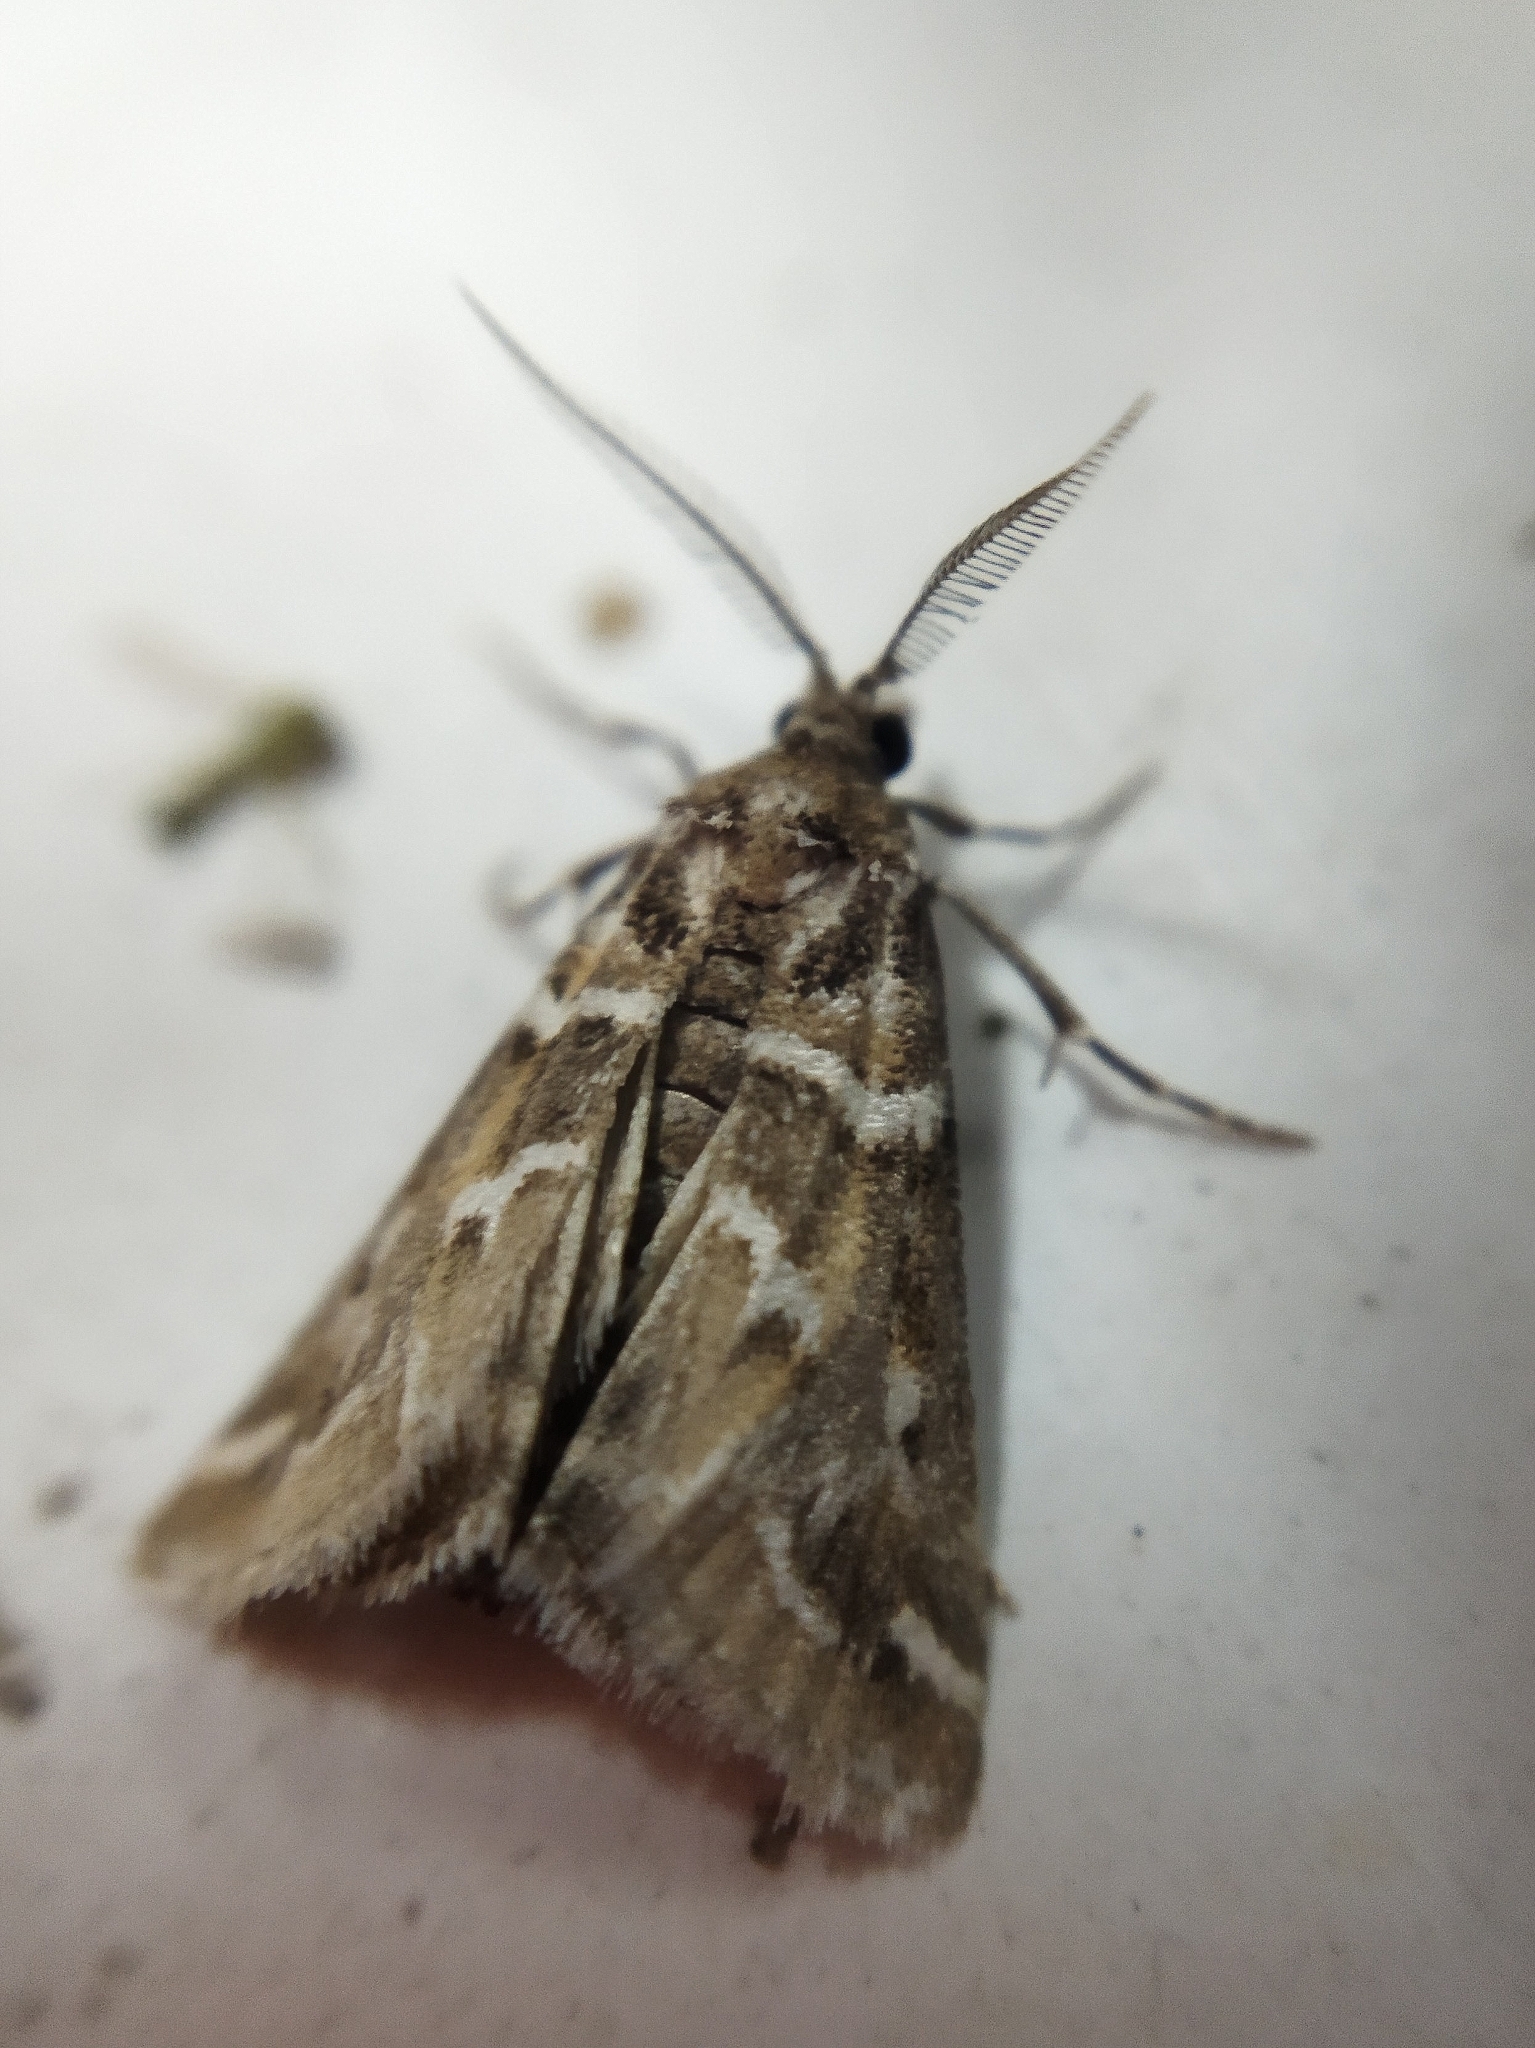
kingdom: Animalia
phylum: Arthropoda
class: Insecta
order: Lepidoptera
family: Pyralidae
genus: Hypotia
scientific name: Hypotia massilialis
